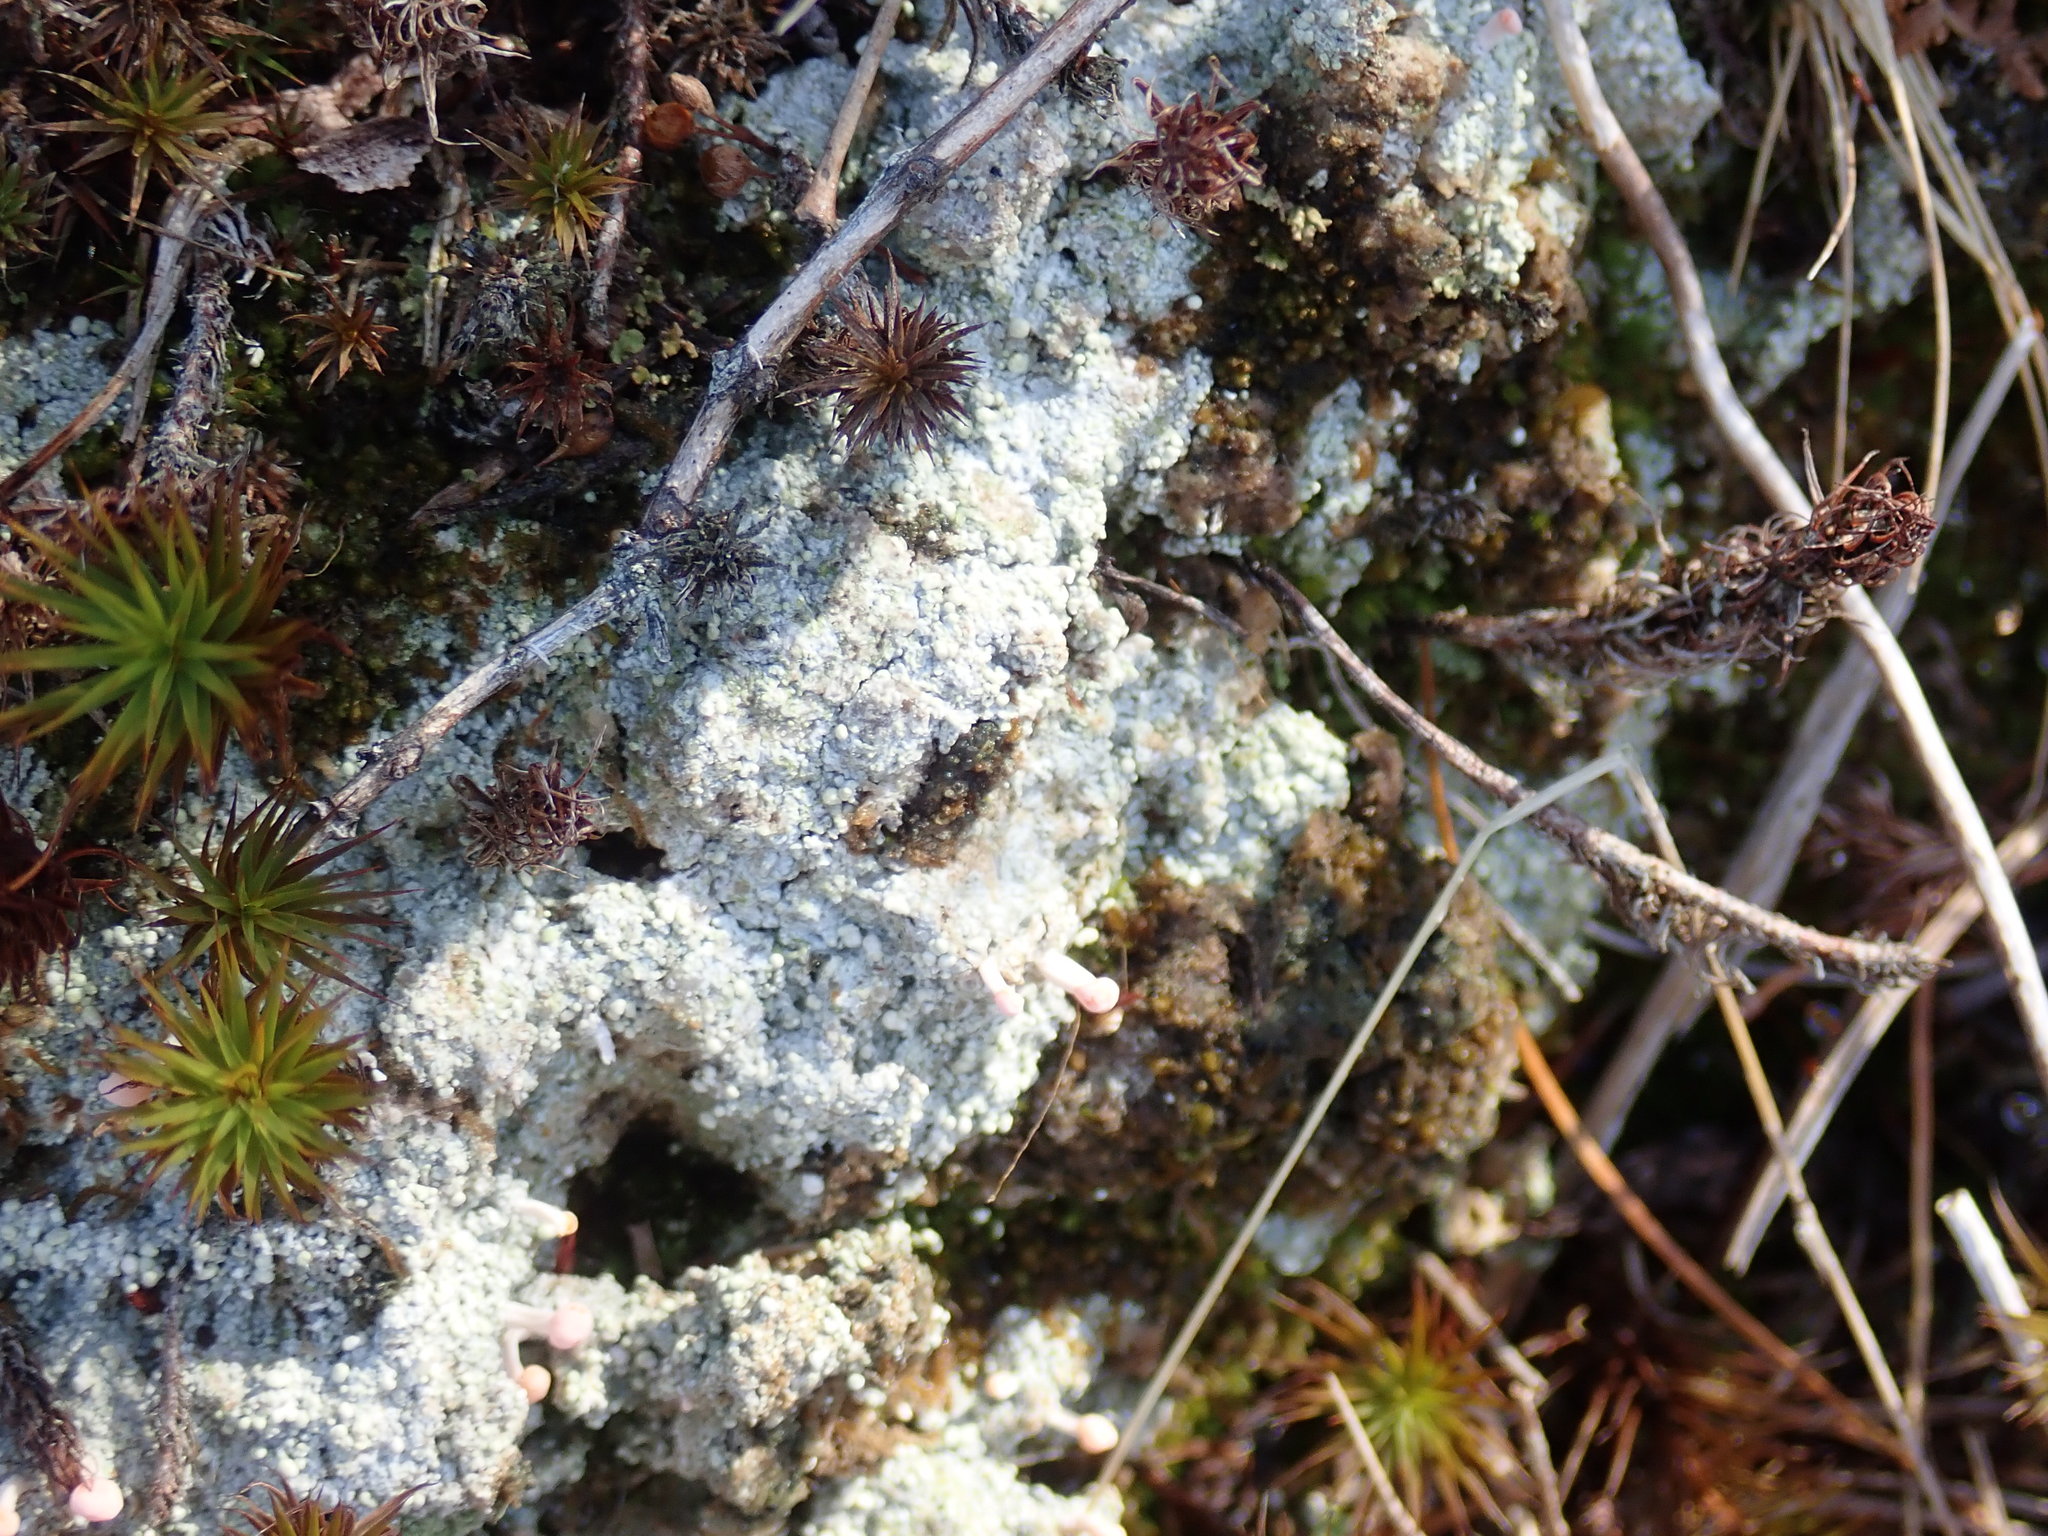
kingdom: Fungi
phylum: Ascomycota
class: Lecanoromycetes
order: Pertusariales
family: Icmadophilaceae
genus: Dibaeis
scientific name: Dibaeis baeomyces
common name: Pink earth lichen
